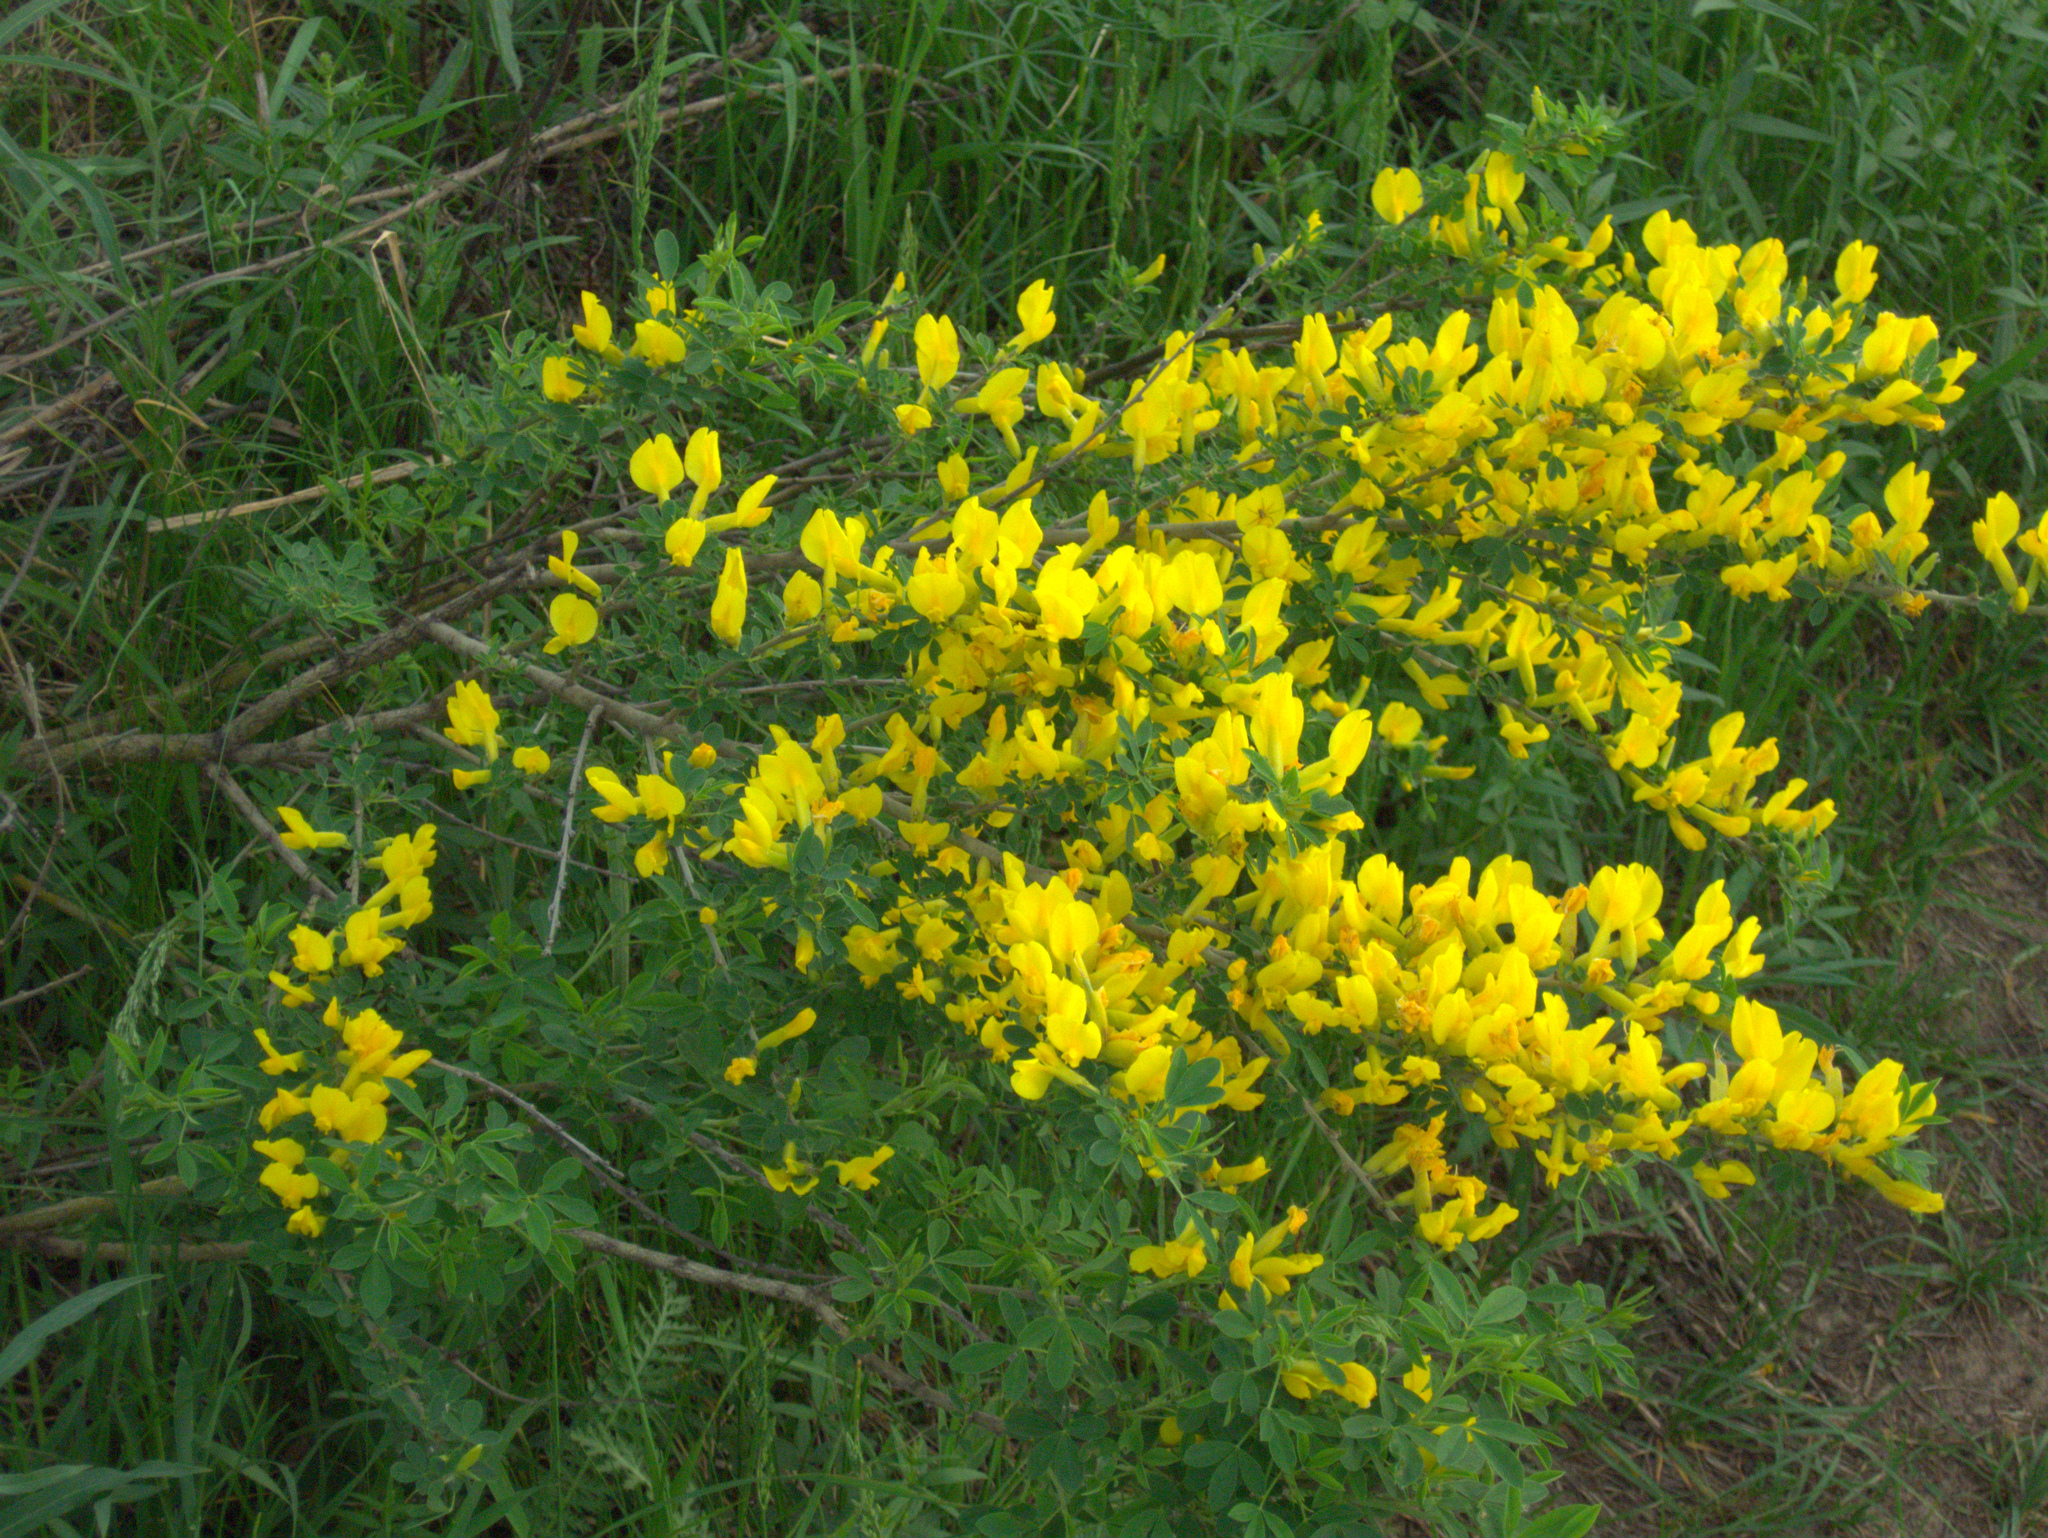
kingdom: Plantae
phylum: Tracheophyta
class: Magnoliopsida
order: Fabales
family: Fabaceae
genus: Chamaecytisus
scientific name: Chamaecytisus ruthenicus
